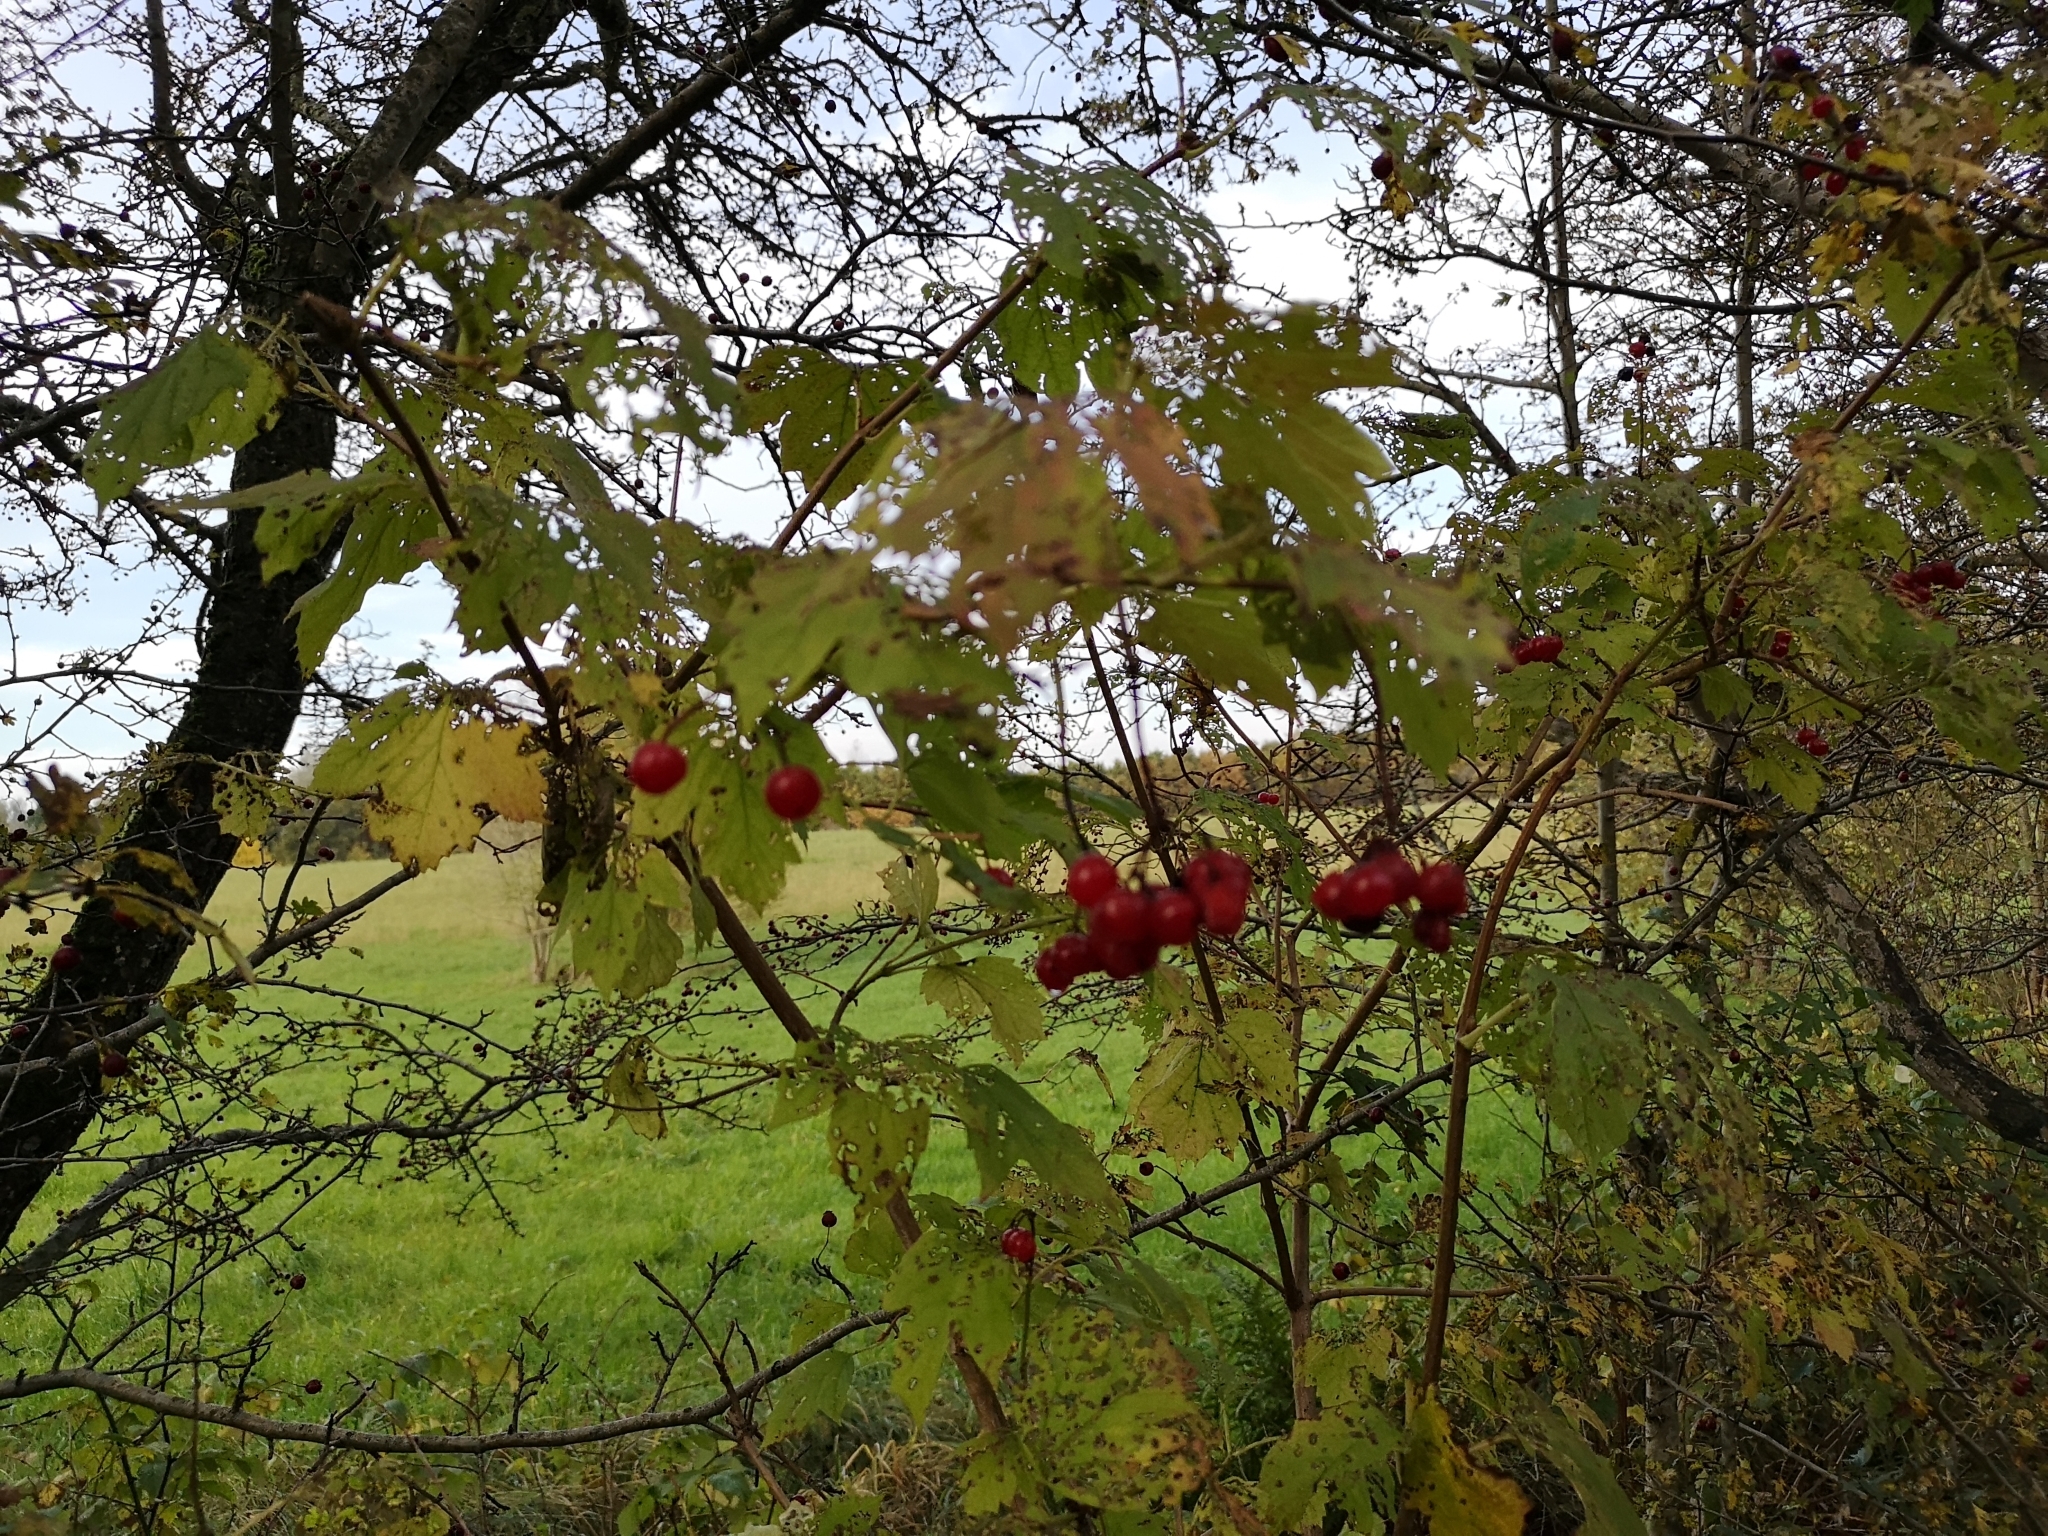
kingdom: Plantae
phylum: Tracheophyta
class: Magnoliopsida
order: Dipsacales
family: Viburnaceae
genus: Viburnum
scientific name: Viburnum opulus
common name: Guelder-rose
